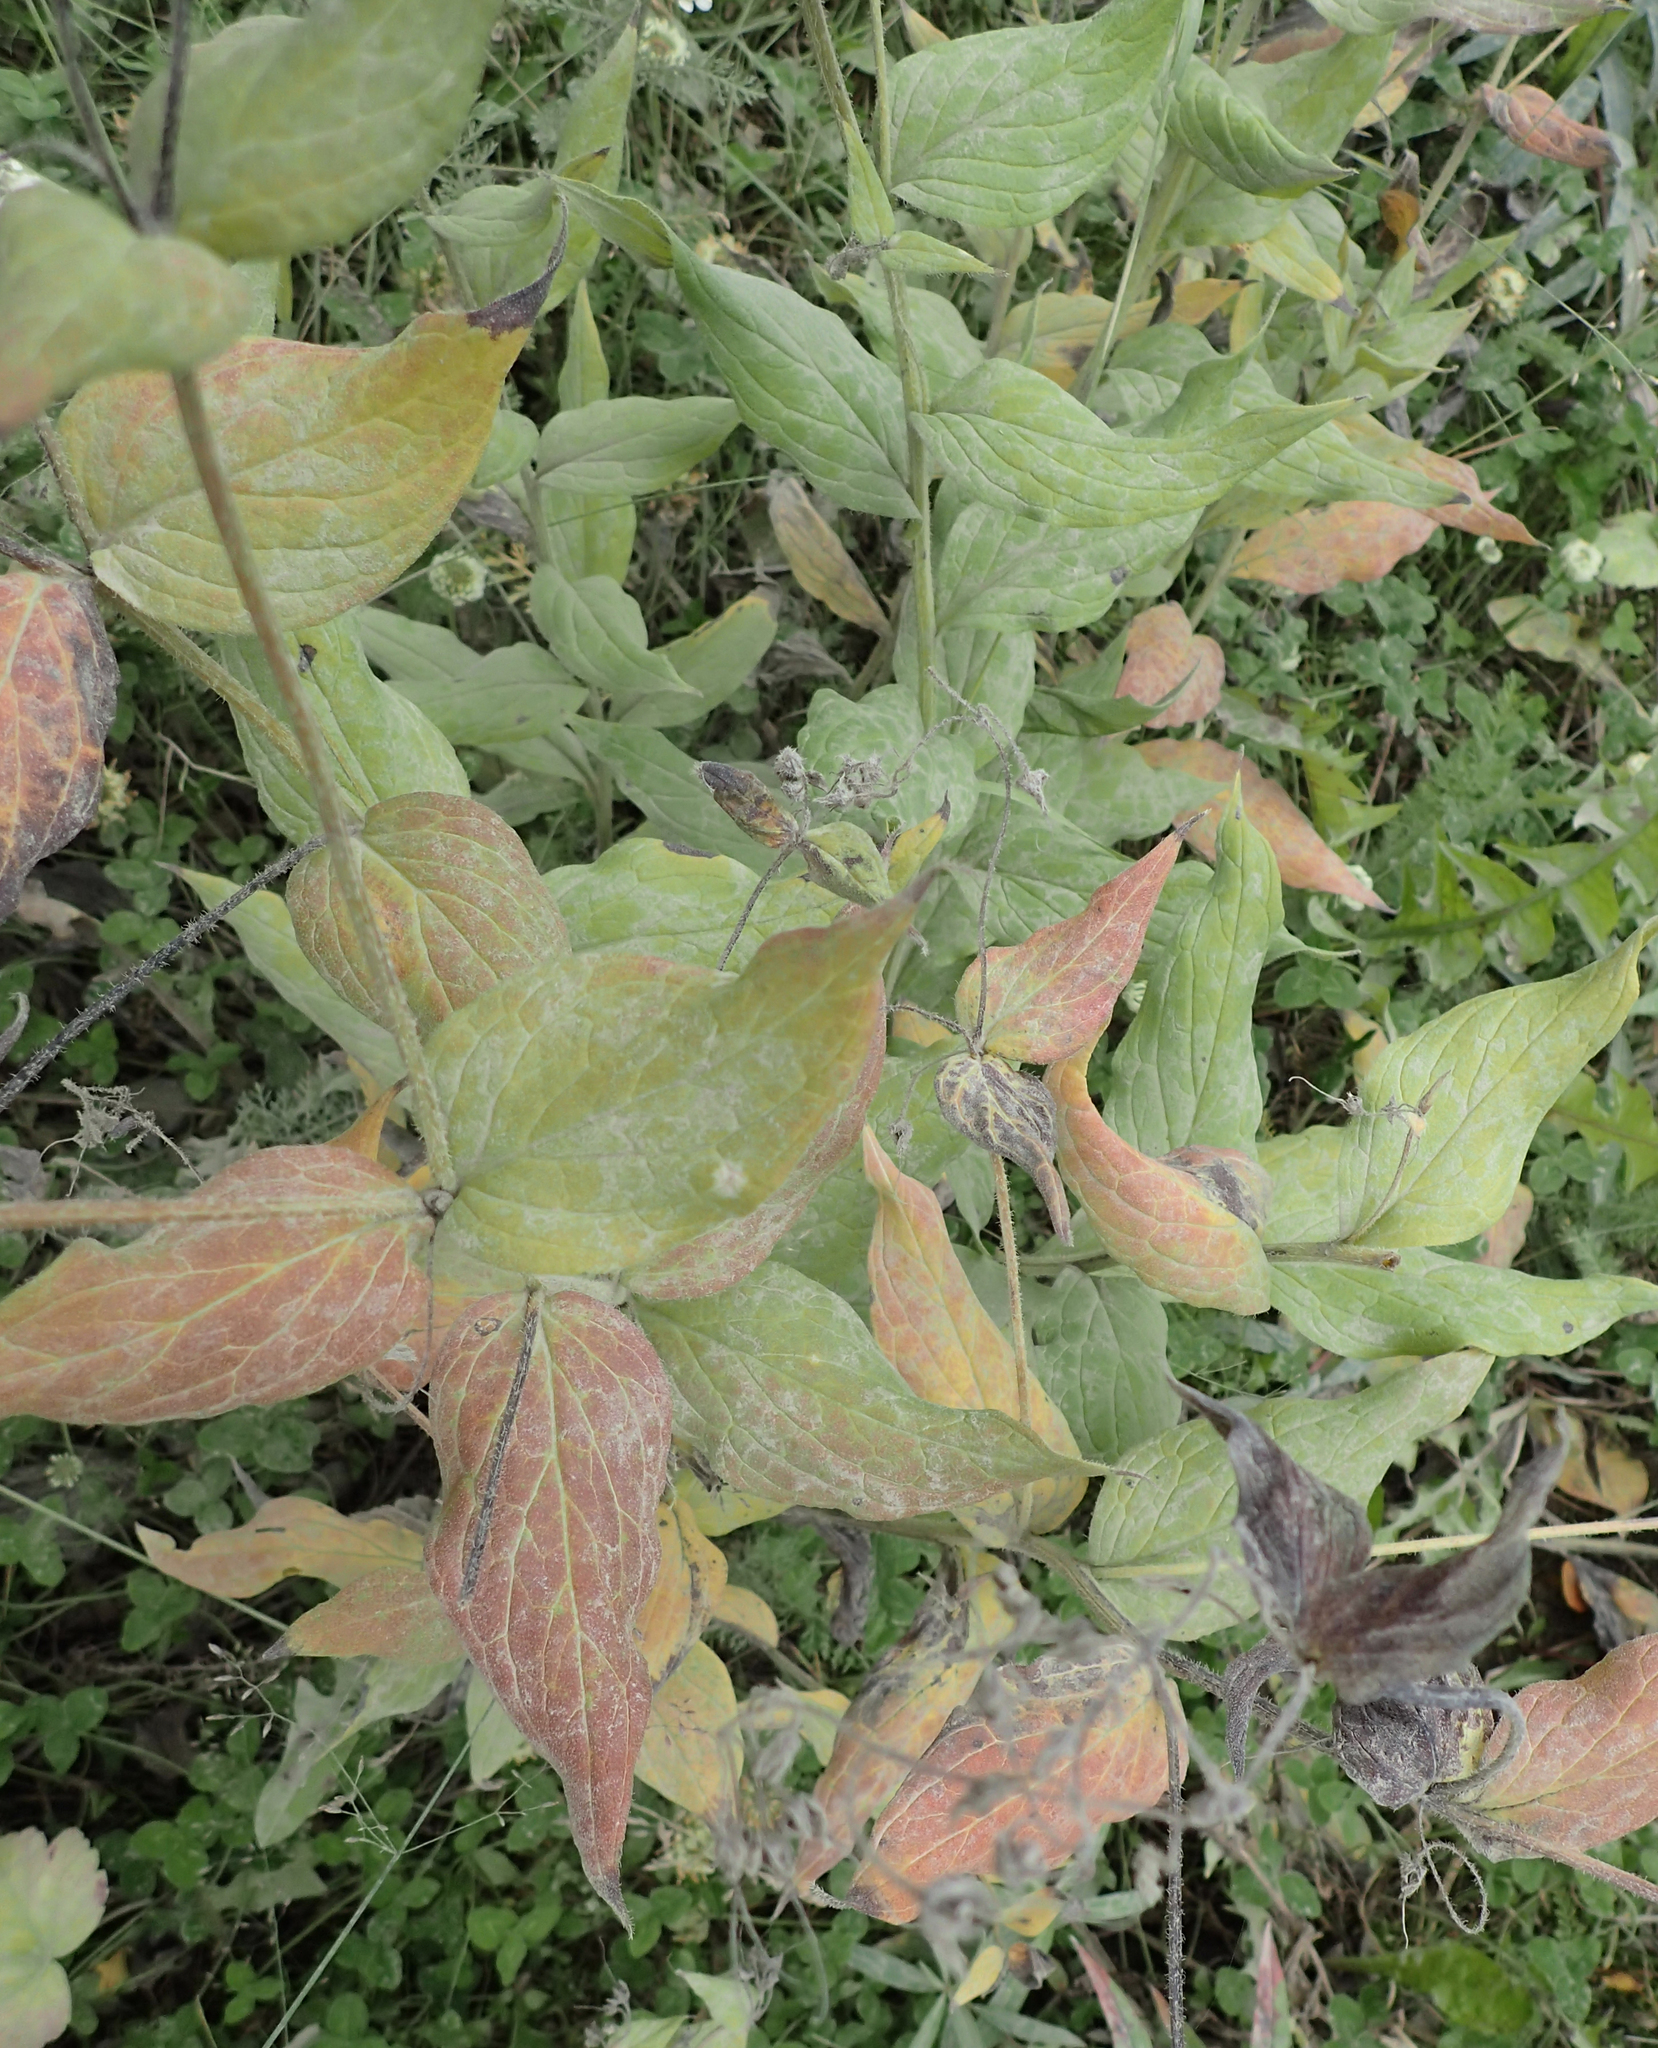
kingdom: Plantae
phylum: Tracheophyta
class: Magnoliopsida
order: Boraginales
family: Boraginaceae
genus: Mertensia
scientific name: Mertensia paniculata
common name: Panicled bluebells
